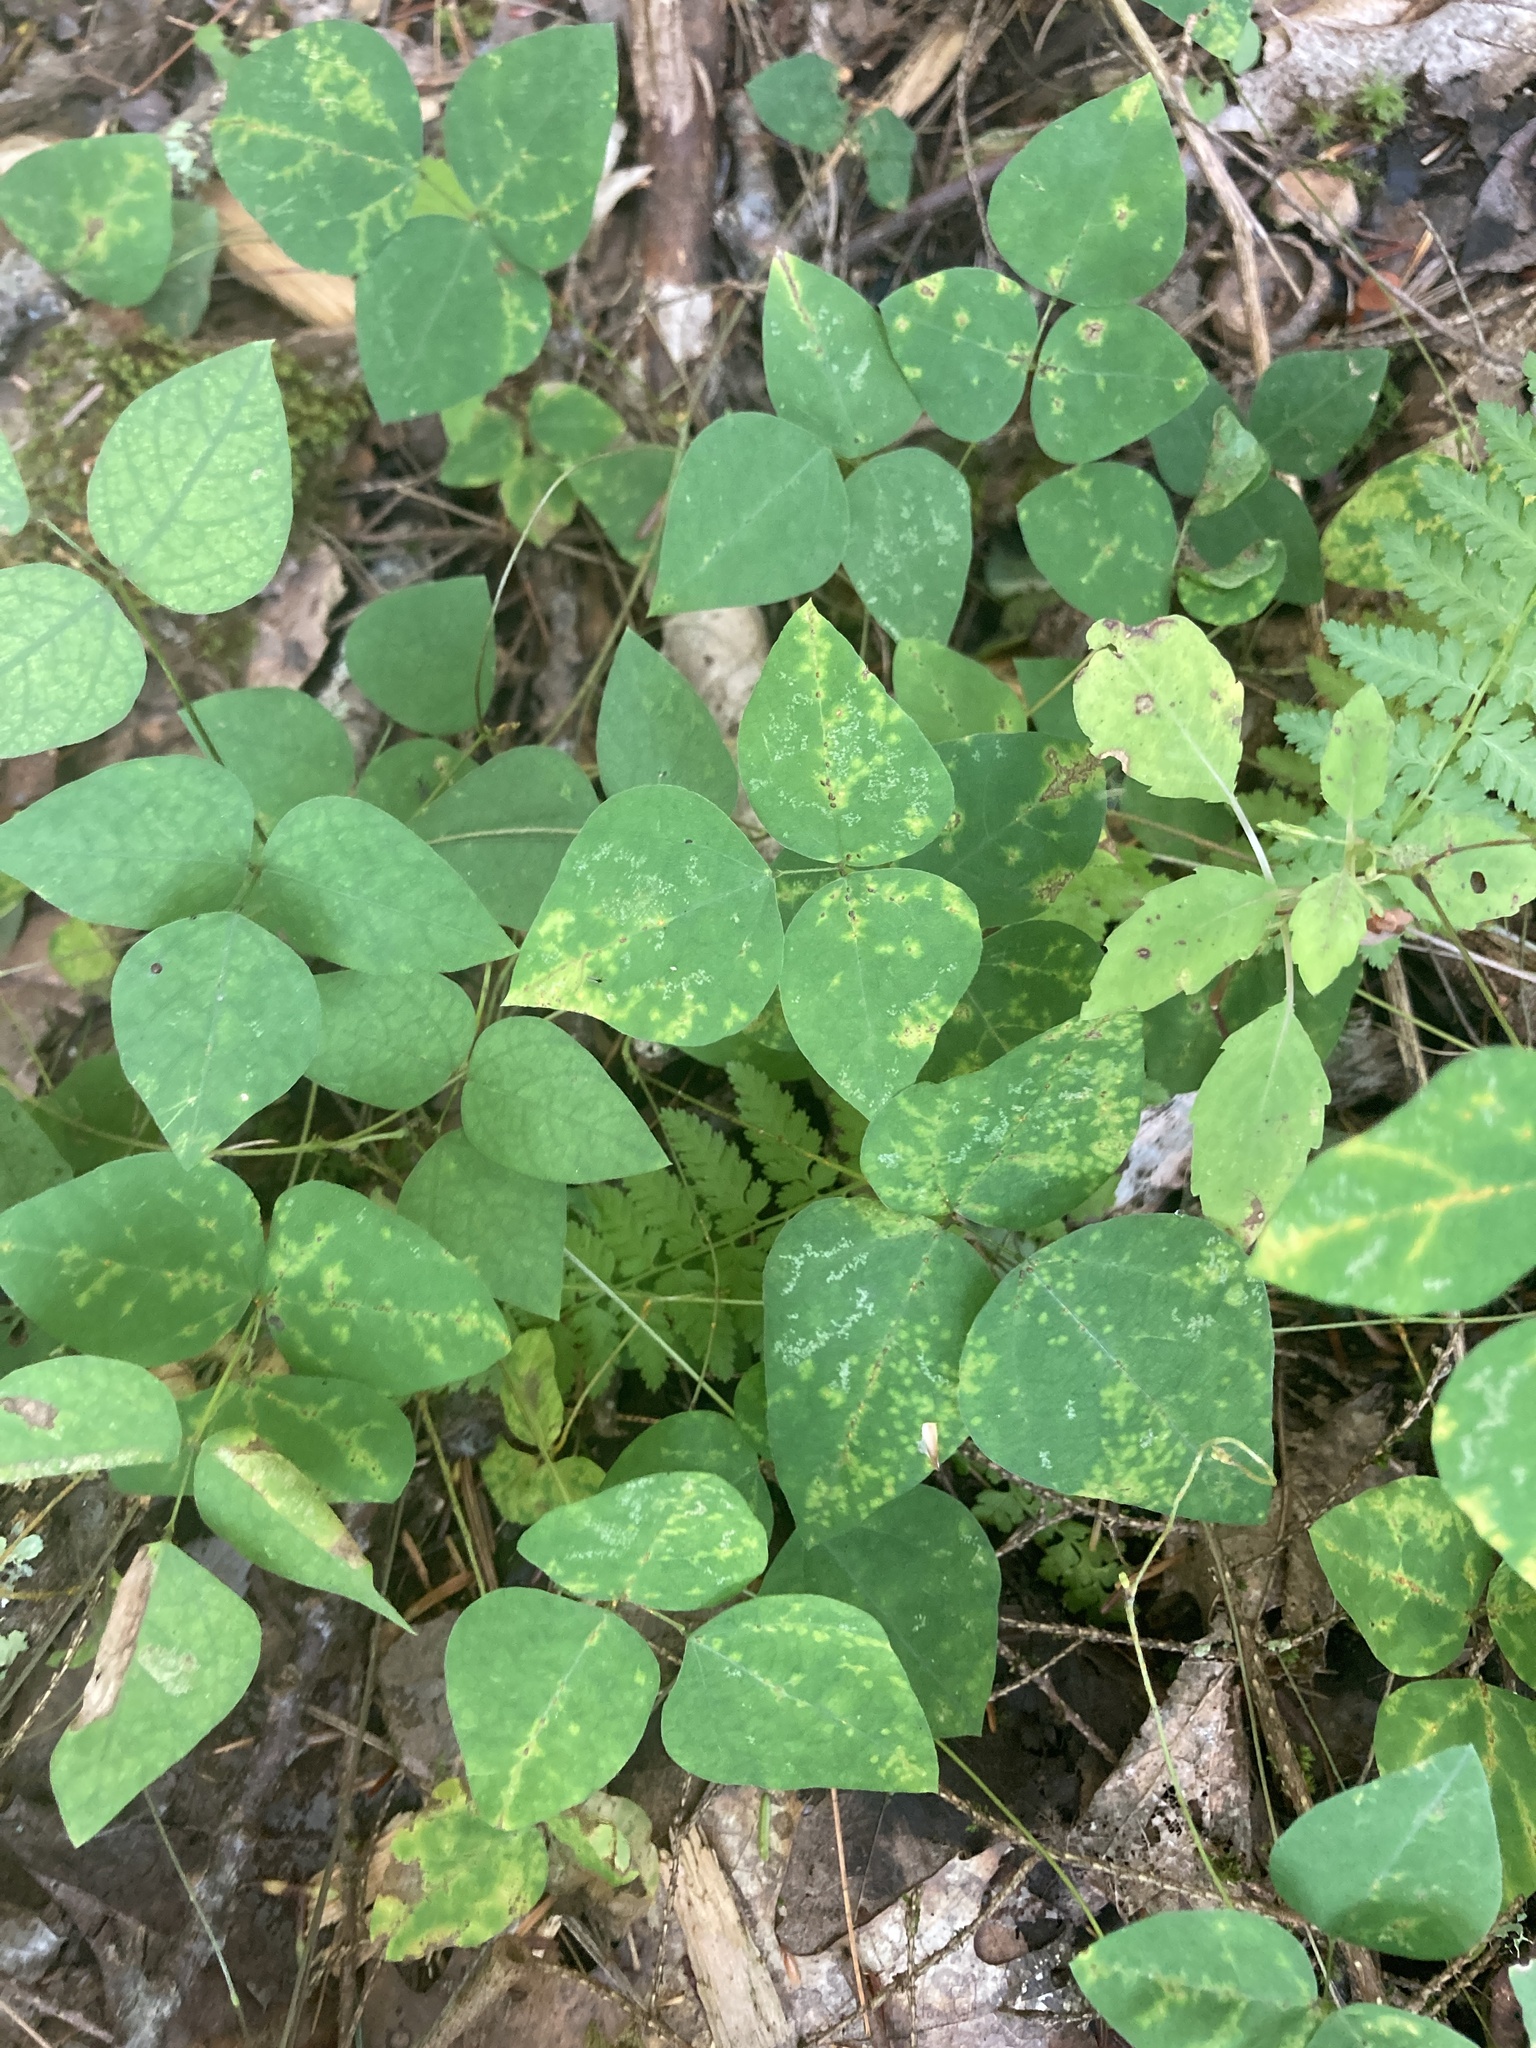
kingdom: Plantae
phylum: Tracheophyta
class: Magnoliopsida
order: Fabales
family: Fabaceae
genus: Amphicarpaea
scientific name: Amphicarpaea bracteata
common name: American hog peanut
